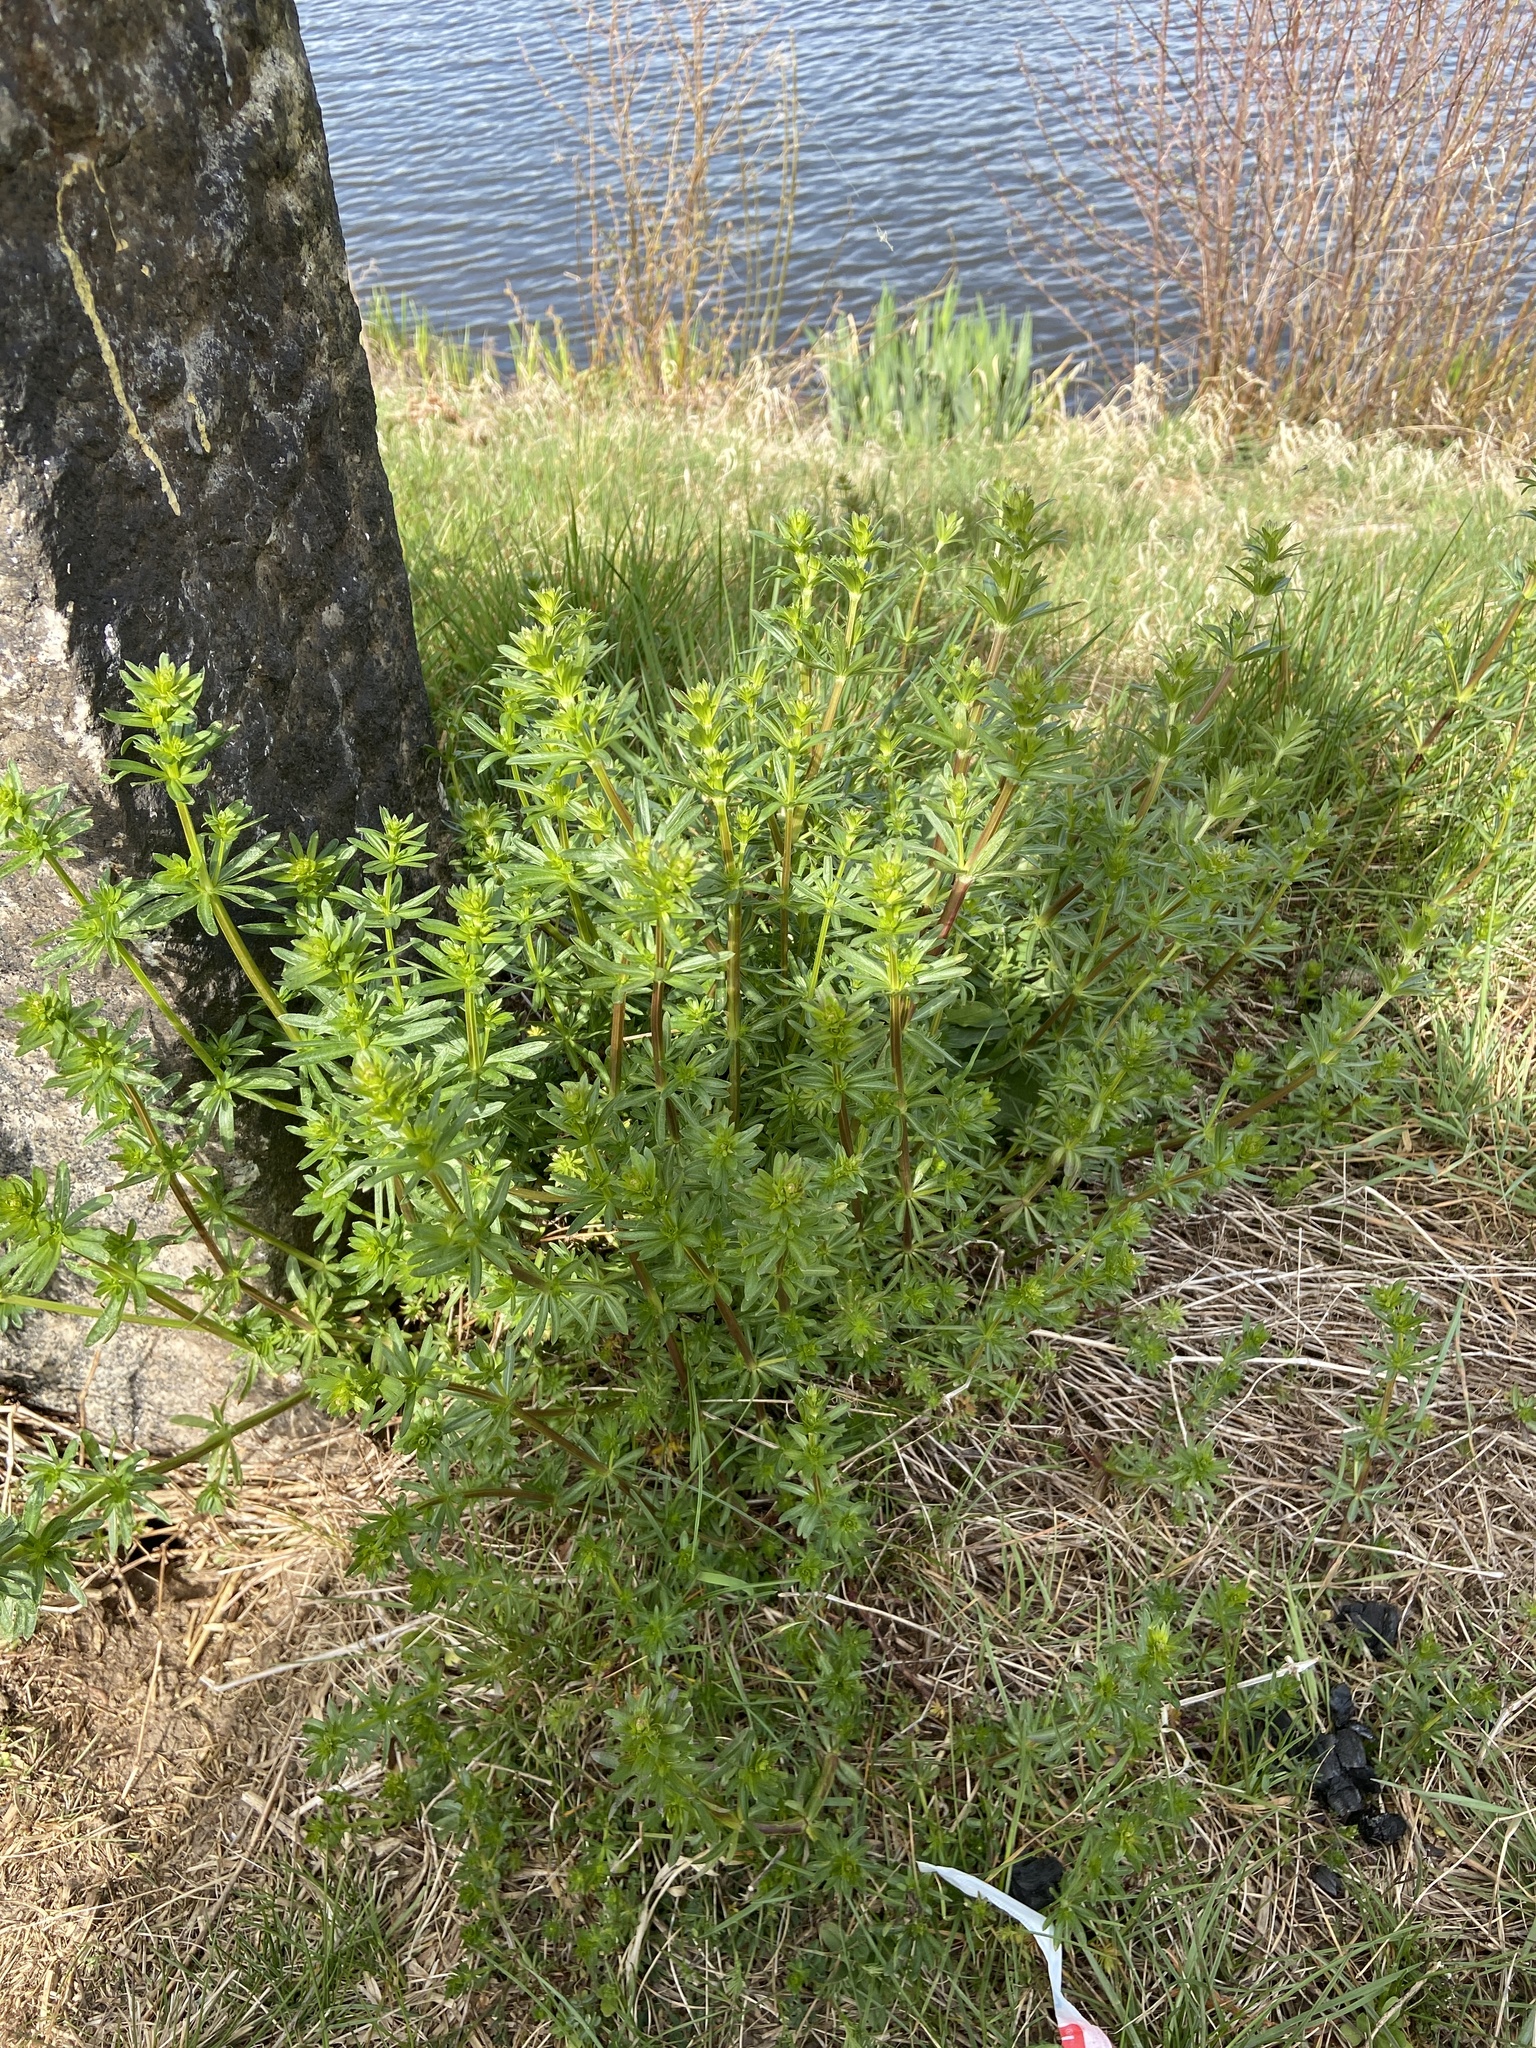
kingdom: Plantae
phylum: Tracheophyta
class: Magnoliopsida
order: Gentianales
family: Rubiaceae
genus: Galium
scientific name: Galium album
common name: White bedstraw
